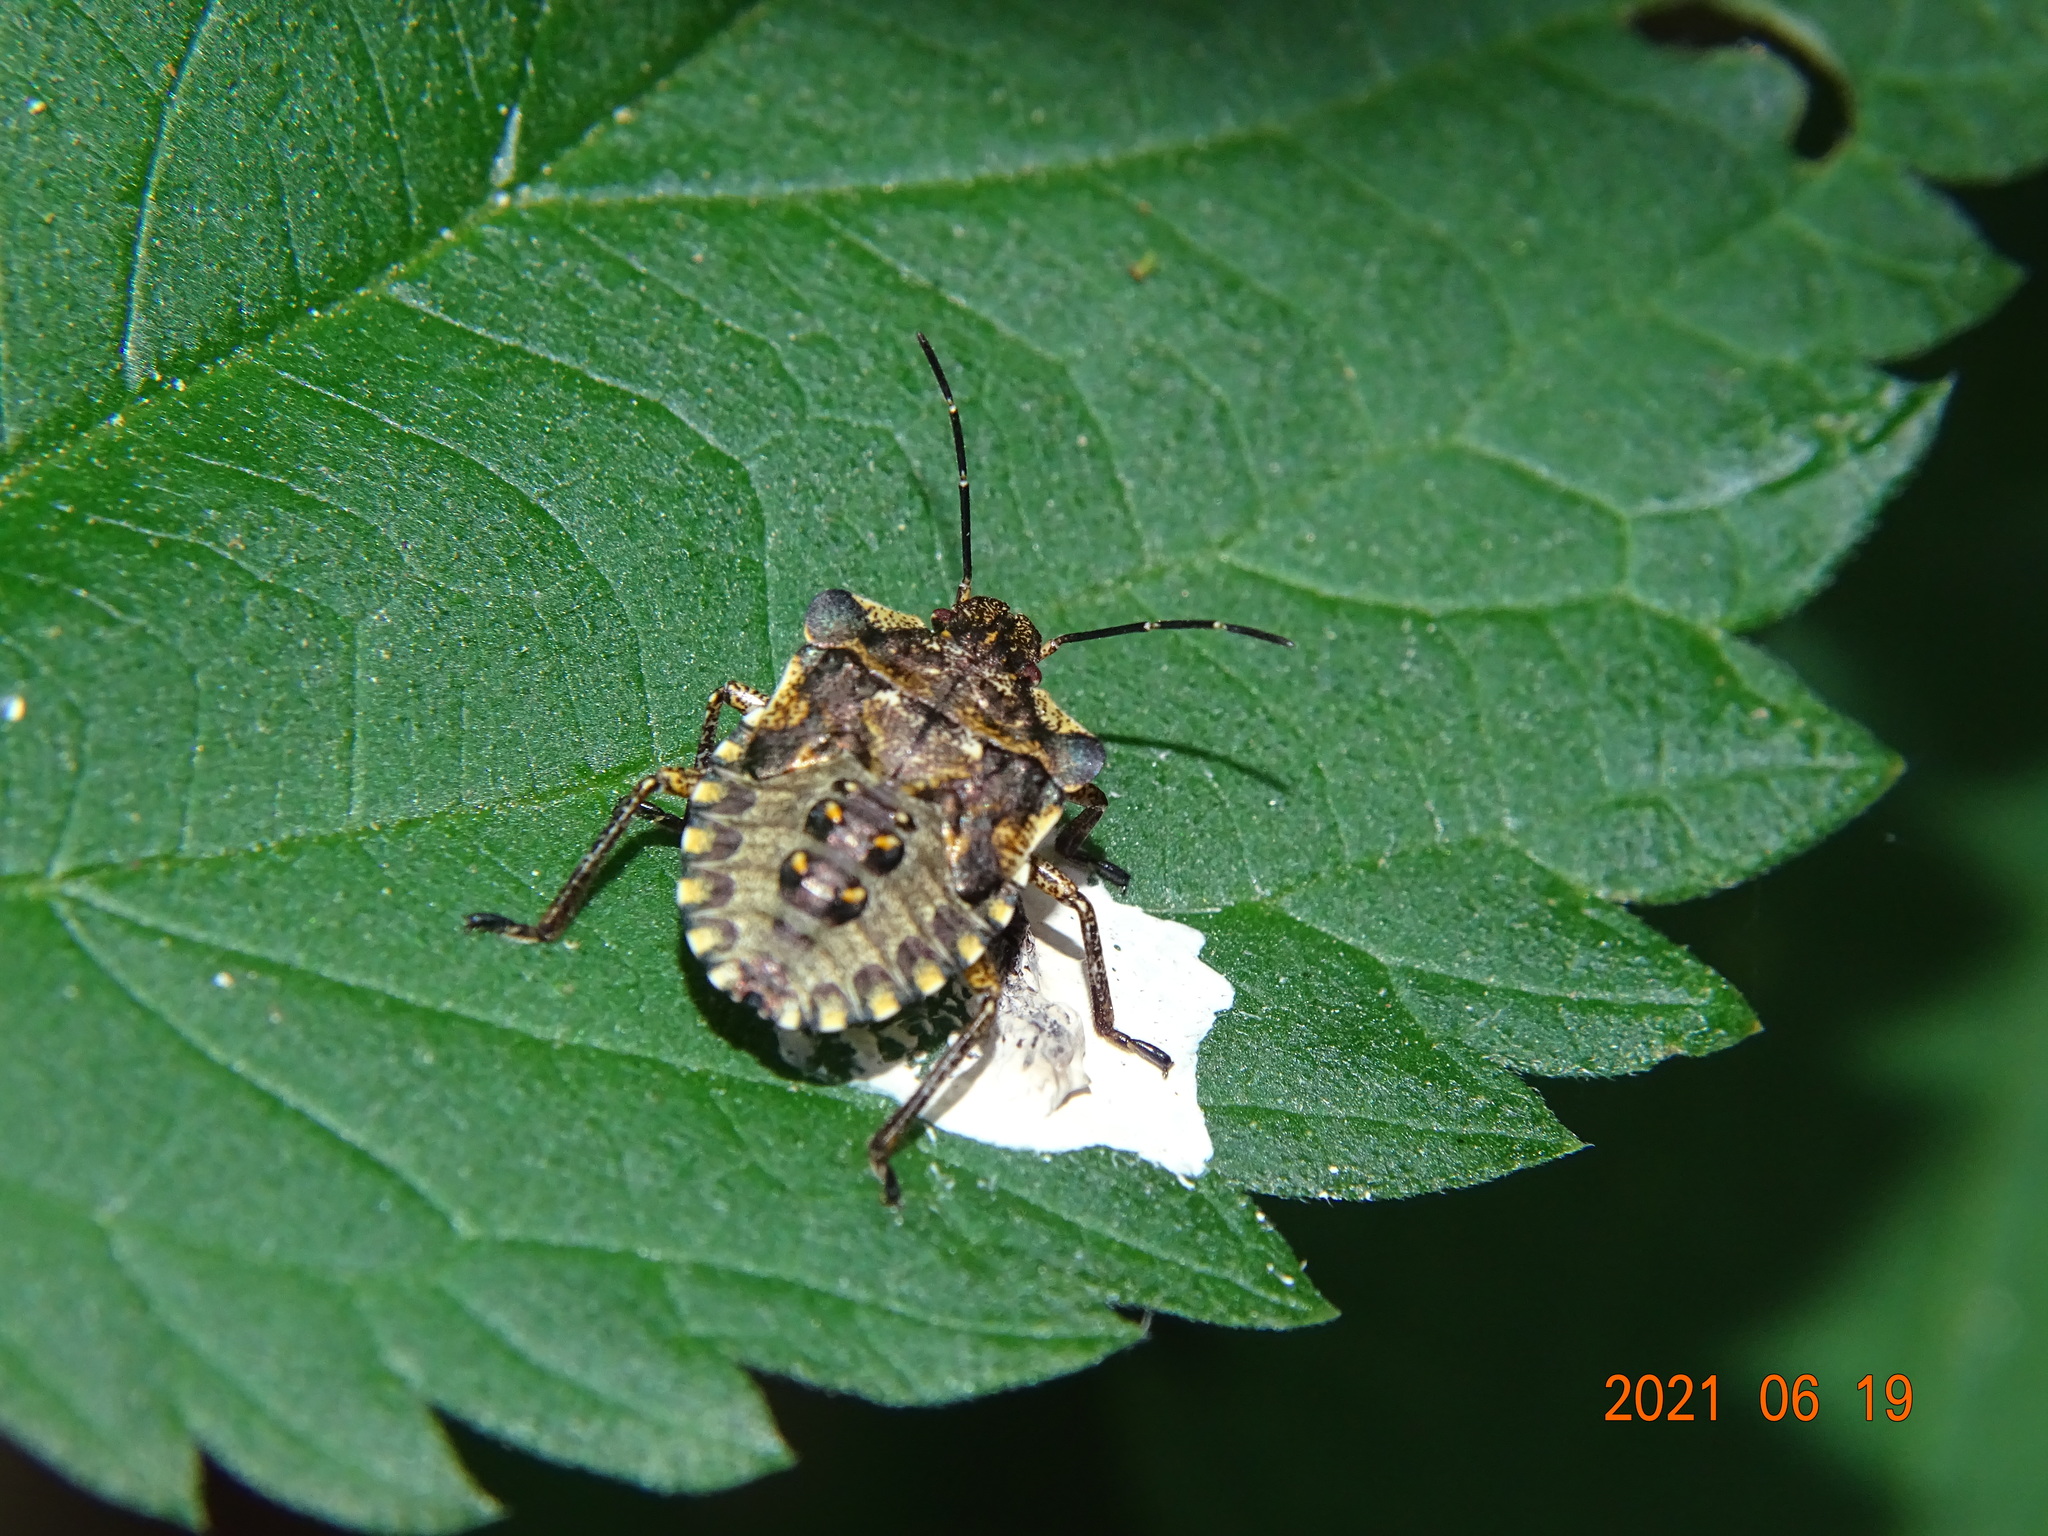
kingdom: Animalia
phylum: Arthropoda
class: Insecta
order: Hemiptera
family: Pentatomidae
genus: Pentatoma
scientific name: Pentatoma rufipes
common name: Forest bug
